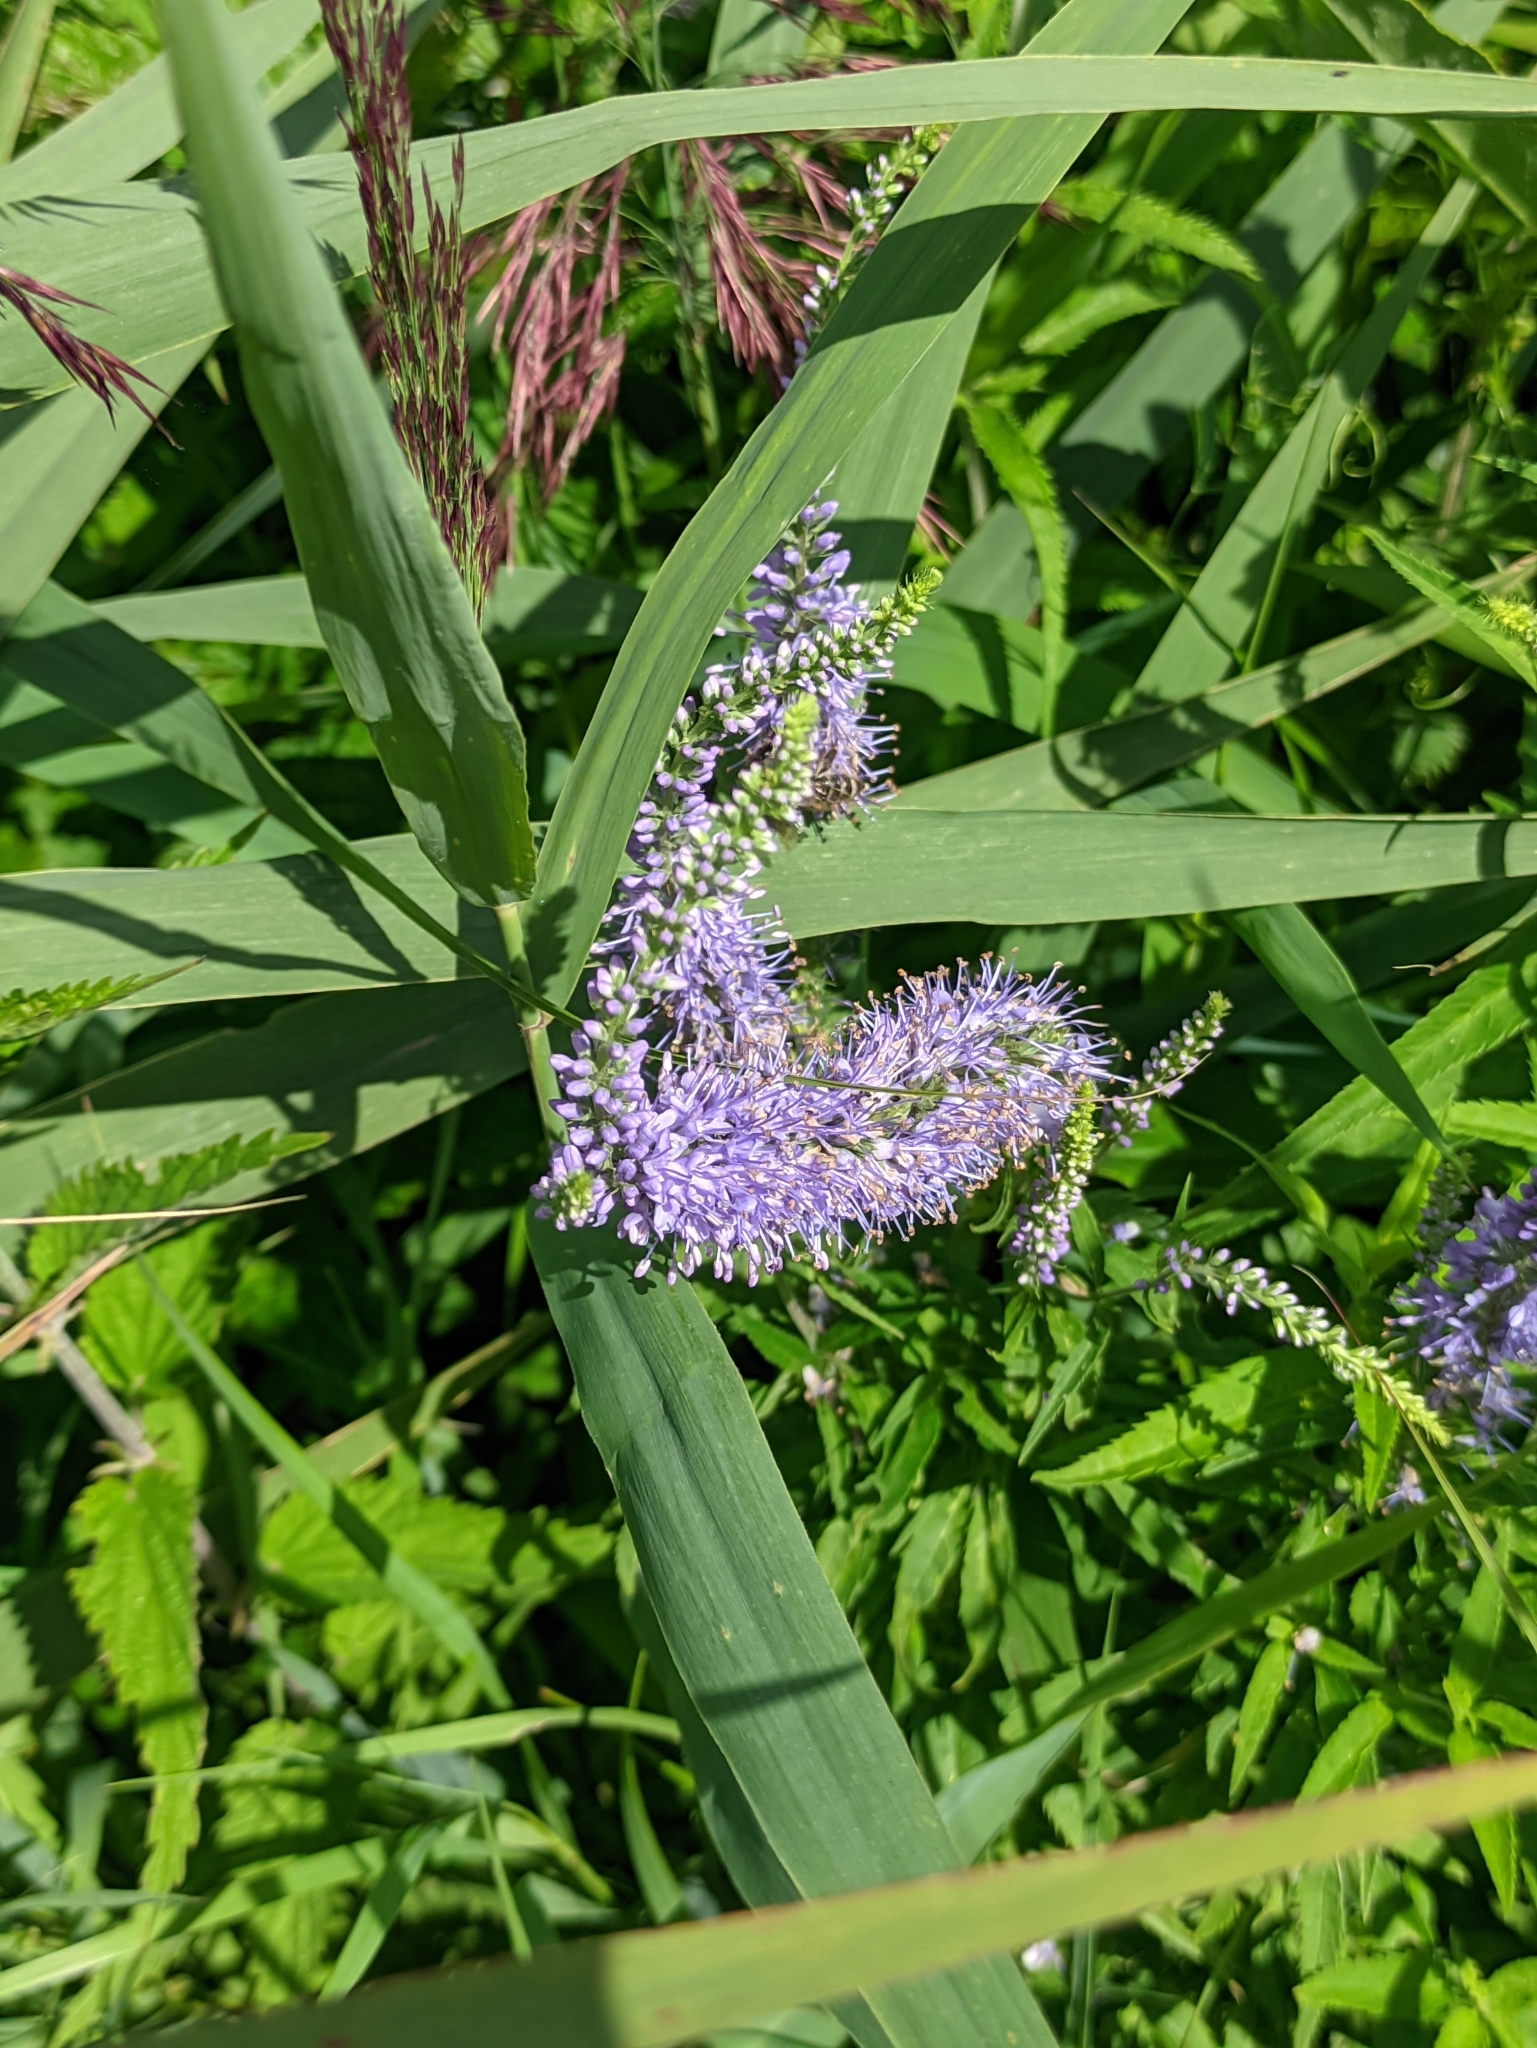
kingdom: Plantae
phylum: Tracheophyta
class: Magnoliopsida
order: Lamiales
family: Plantaginaceae
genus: Veronica
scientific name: Veronica longifolia
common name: Garden speedwell
